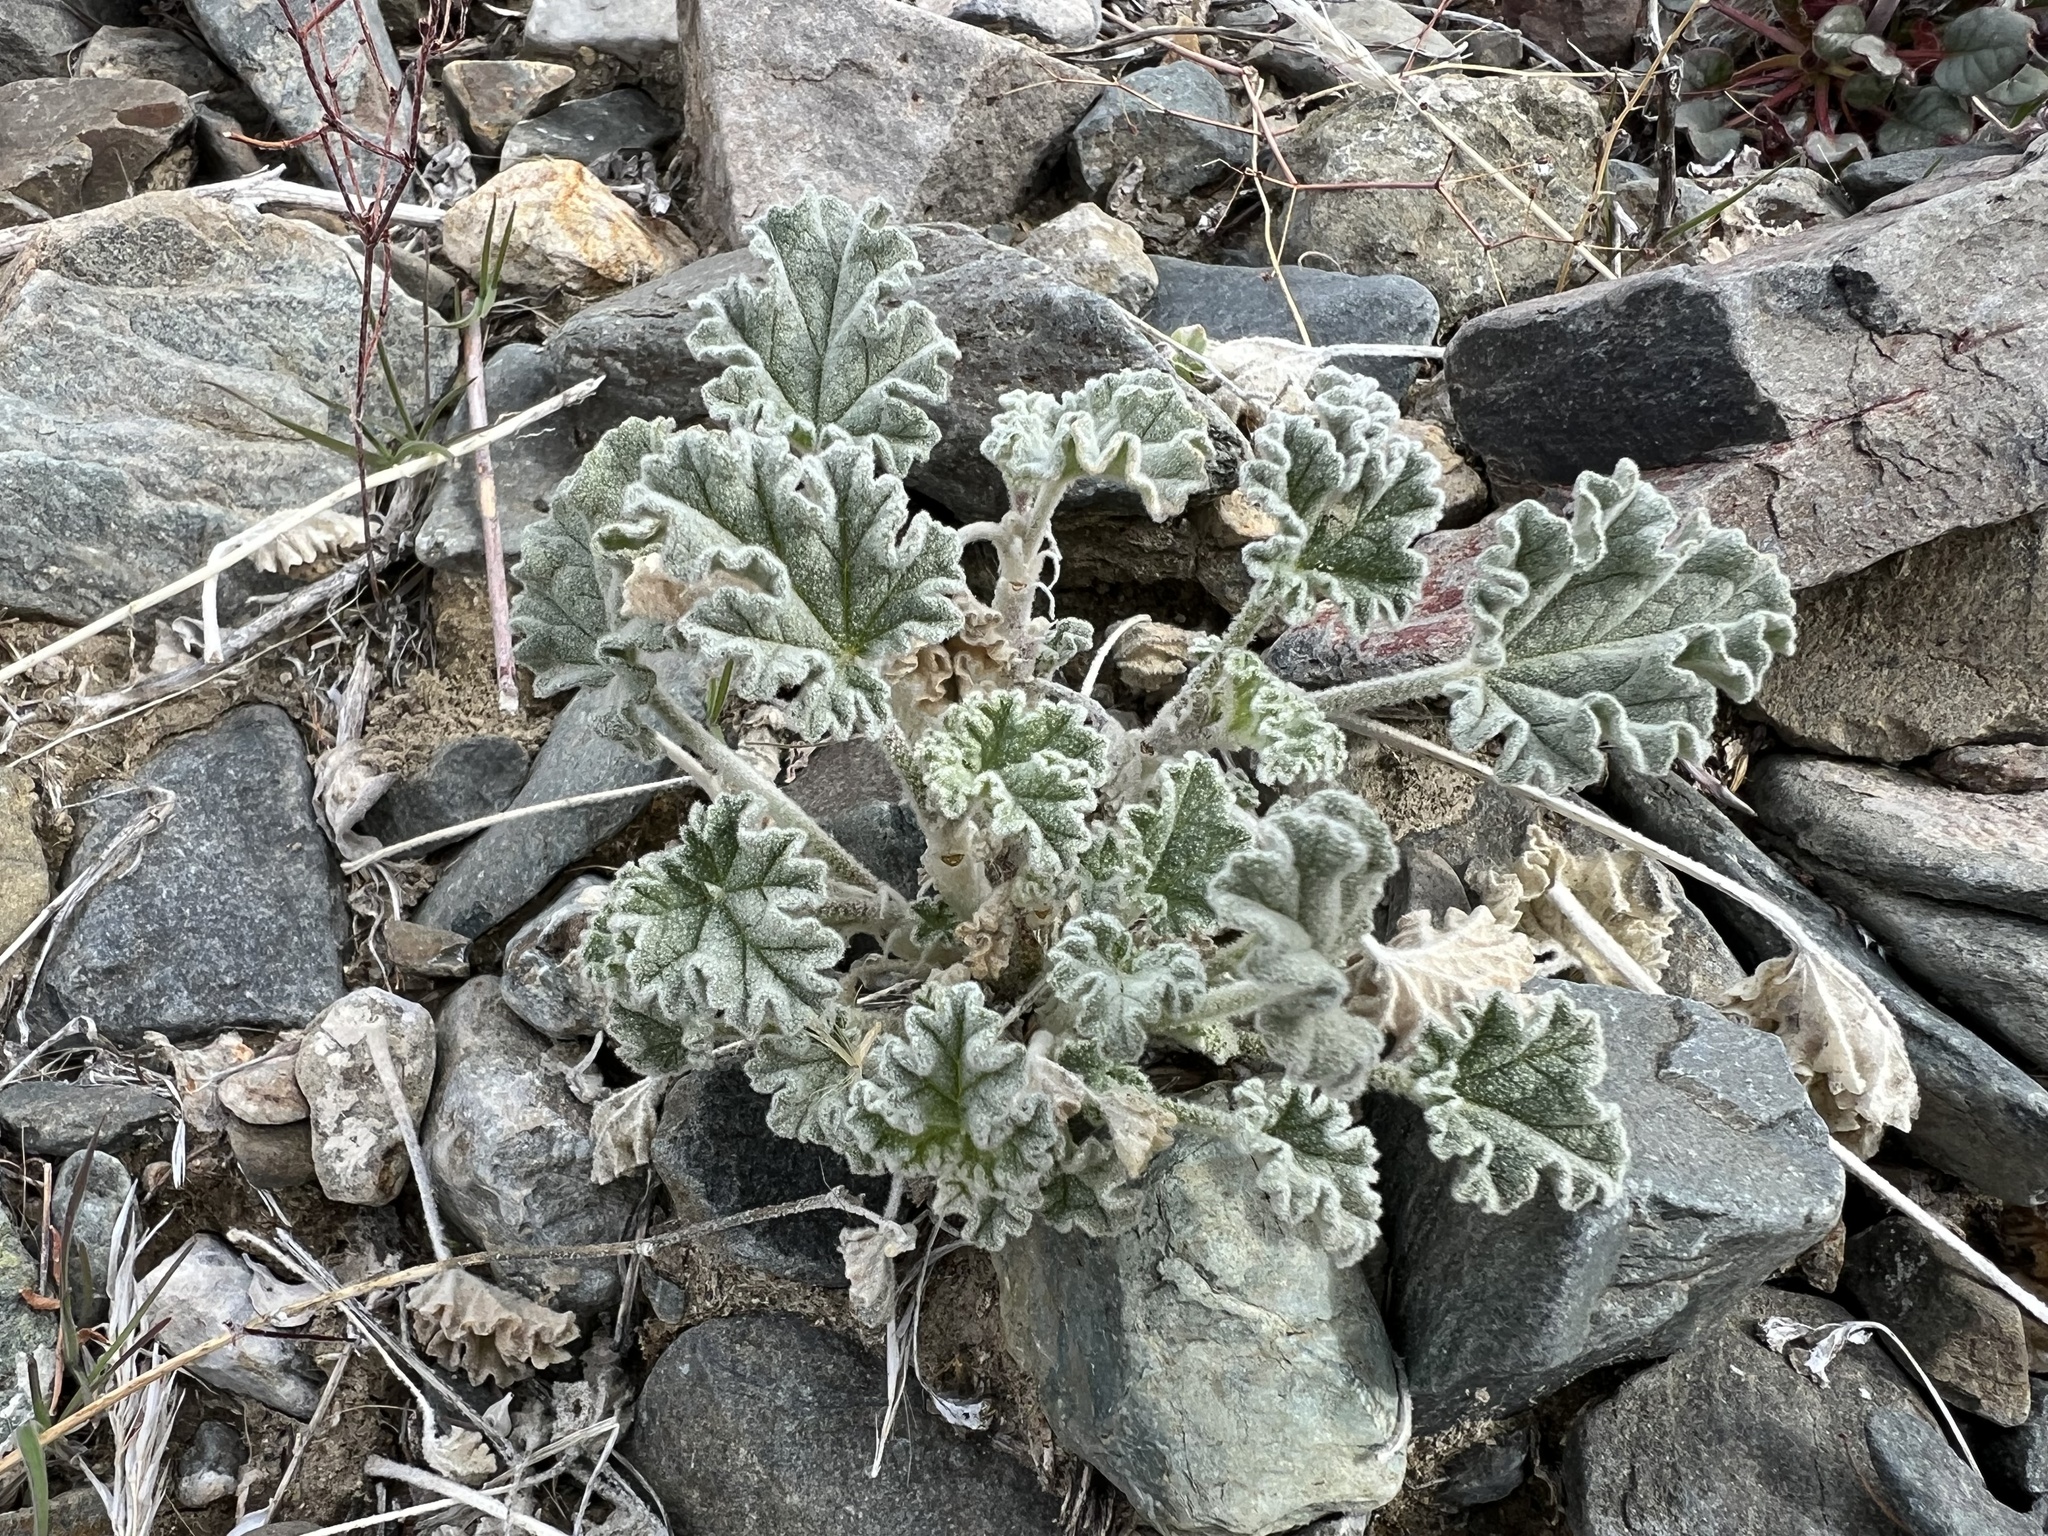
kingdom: Plantae
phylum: Tracheophyta
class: Magnoliopsida
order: Malvales
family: Malvaceae
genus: Sphaeralcea
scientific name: Sphaeralcea ambigua
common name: Apricot globe-mallow
